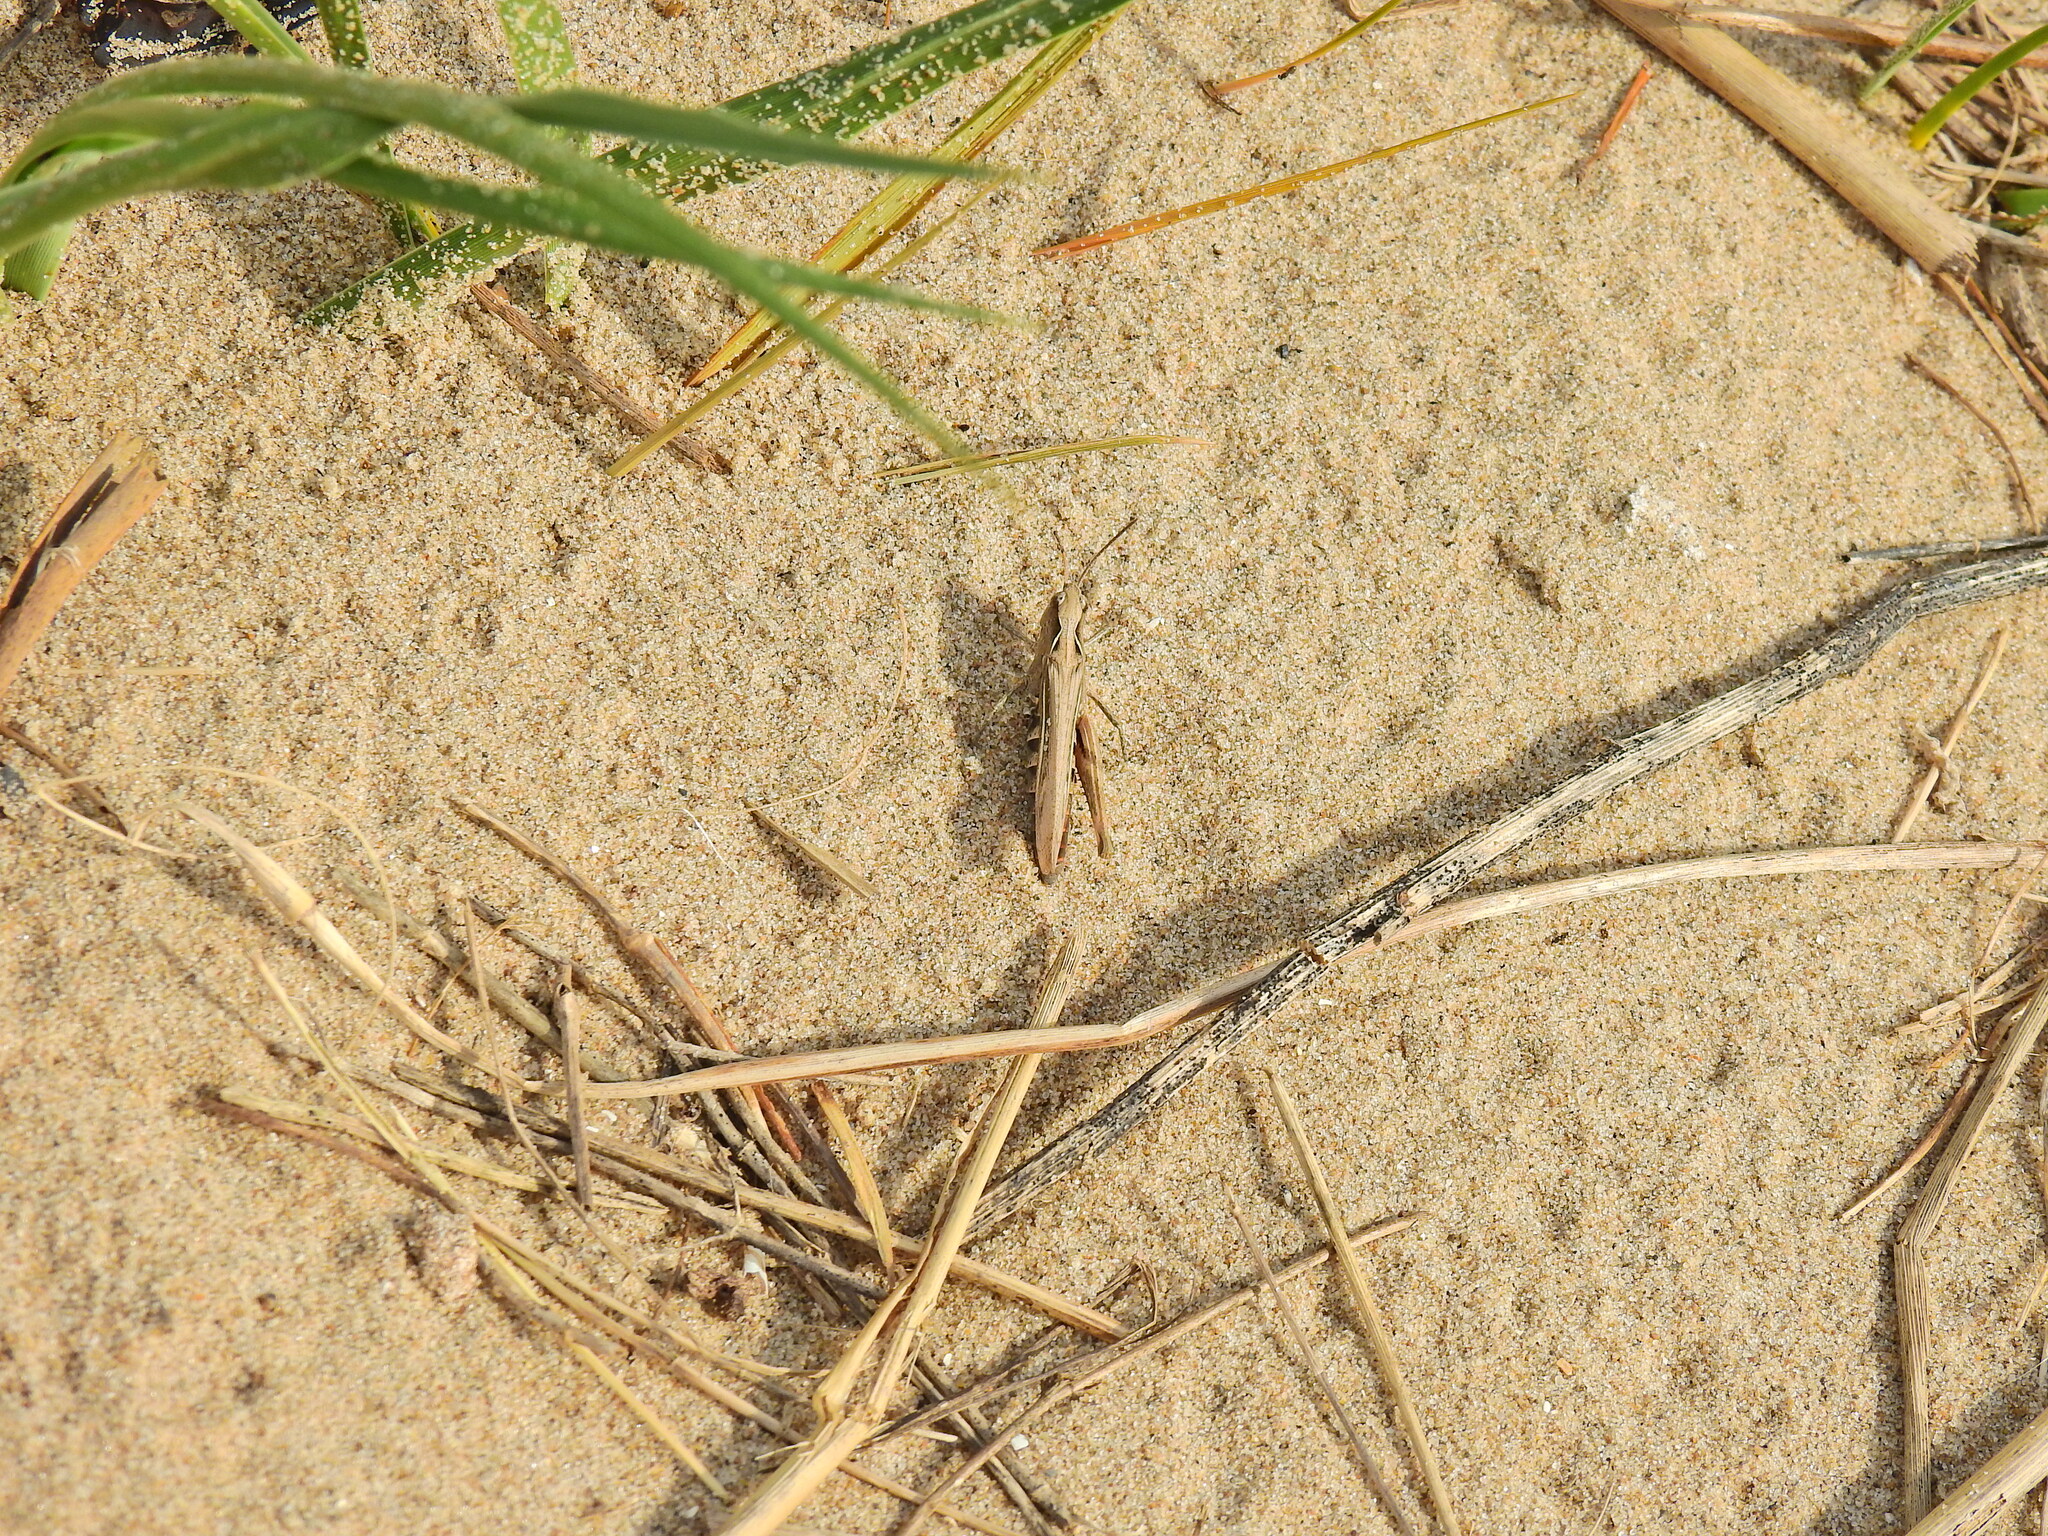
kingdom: Animalia
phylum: Arthropoda
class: Insecta
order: Orthoptera
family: Acrididae
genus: Chorthippus
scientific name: Chorthippus brunneus
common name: Field grasshopper
